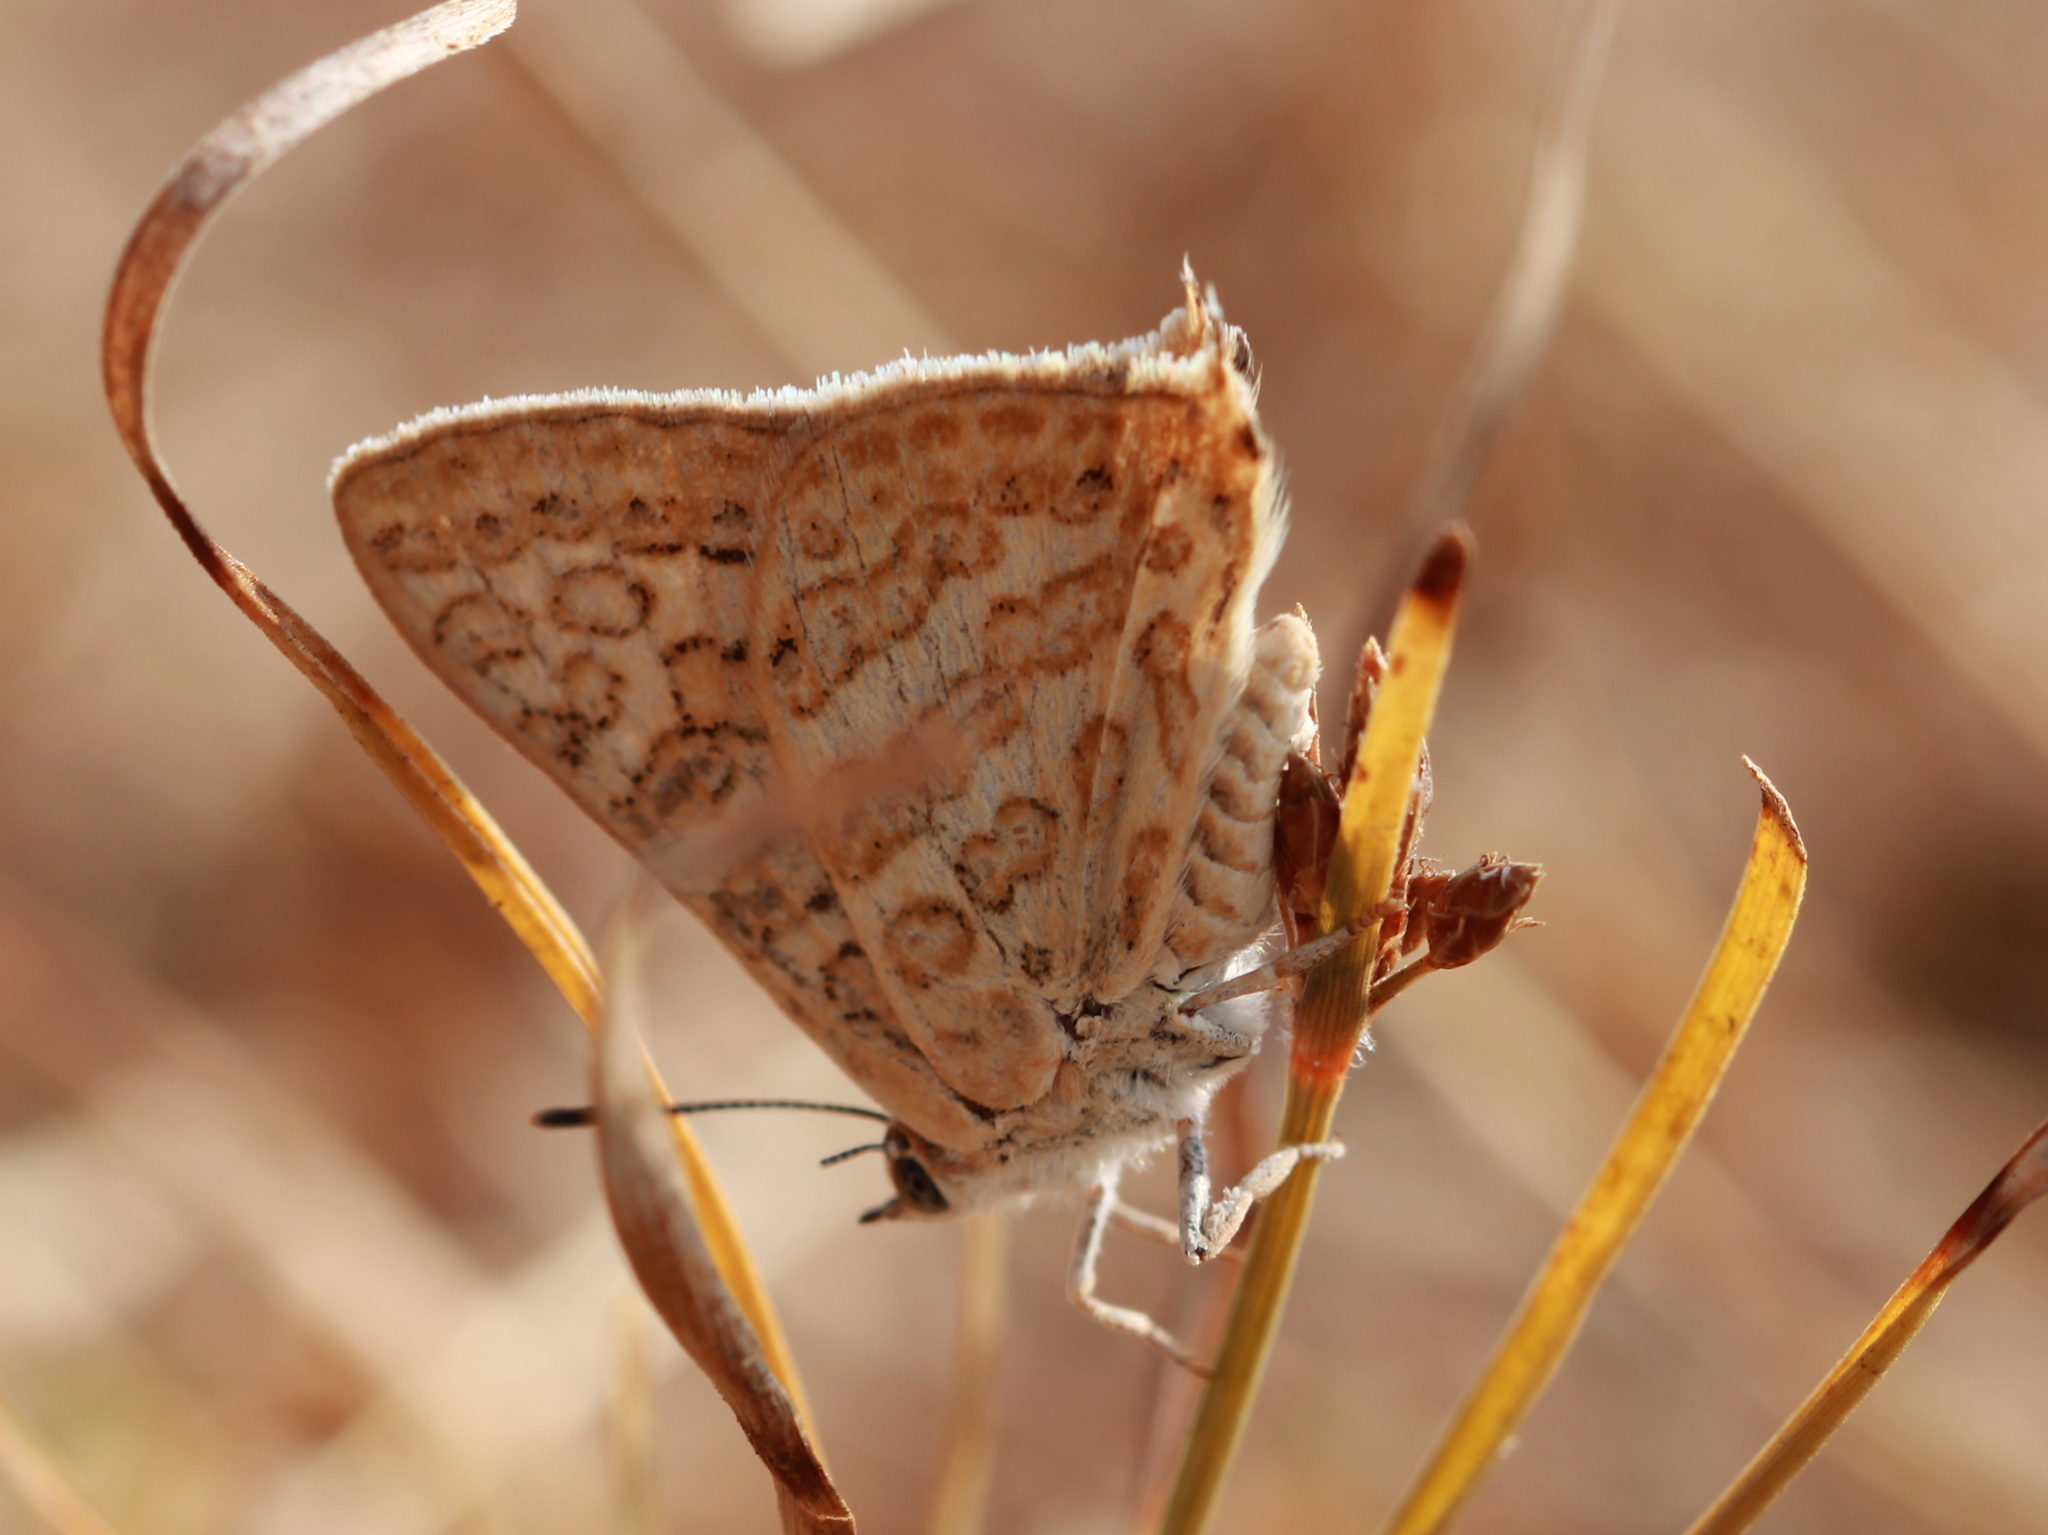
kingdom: Animalia
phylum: Arthropoda
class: Insecta
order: Lepidoptera
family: Lycaenidae
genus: Aphnaeus
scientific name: Aphnaeus lilacinus
